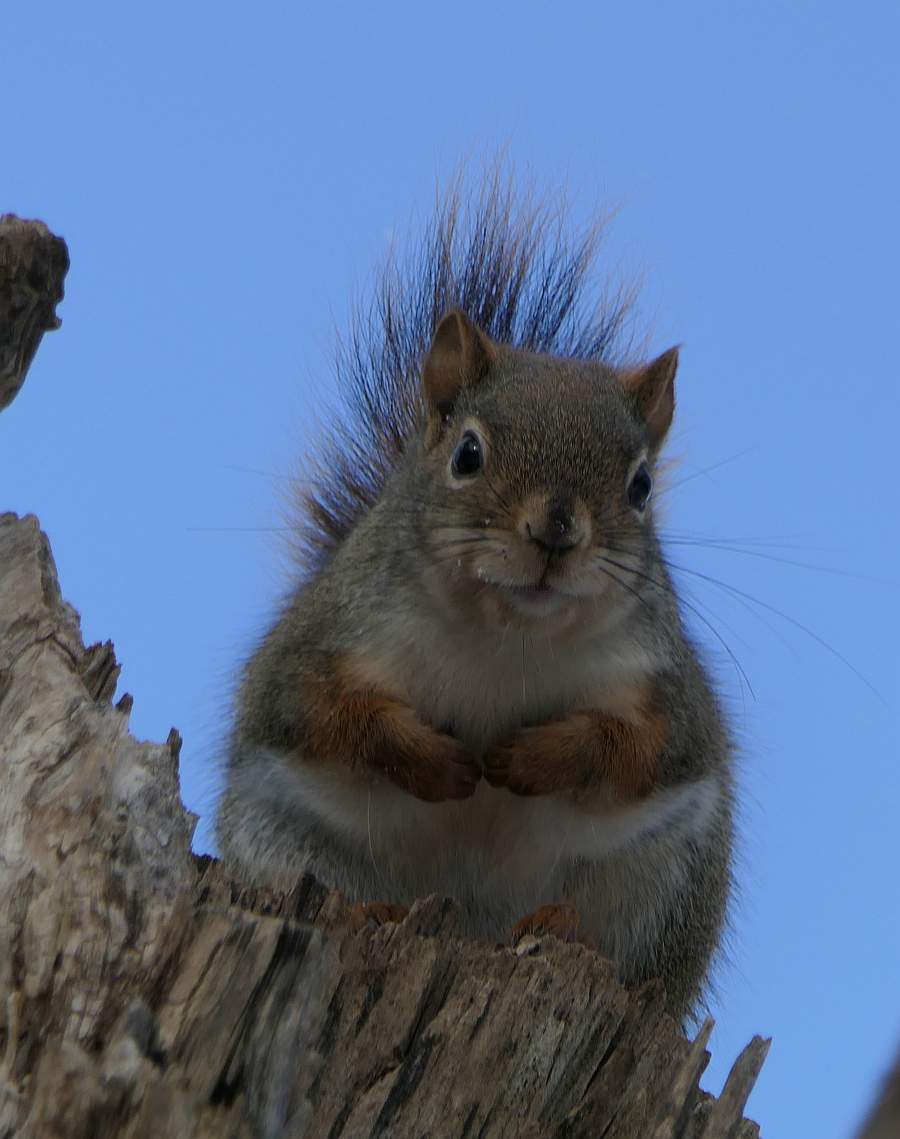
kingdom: Animalia
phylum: Chordata
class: Mammalia
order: Rodentia
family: Sciuridae
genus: Tamiasciurus
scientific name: Tamiasciurus hudsonicus
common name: Red squirrel
